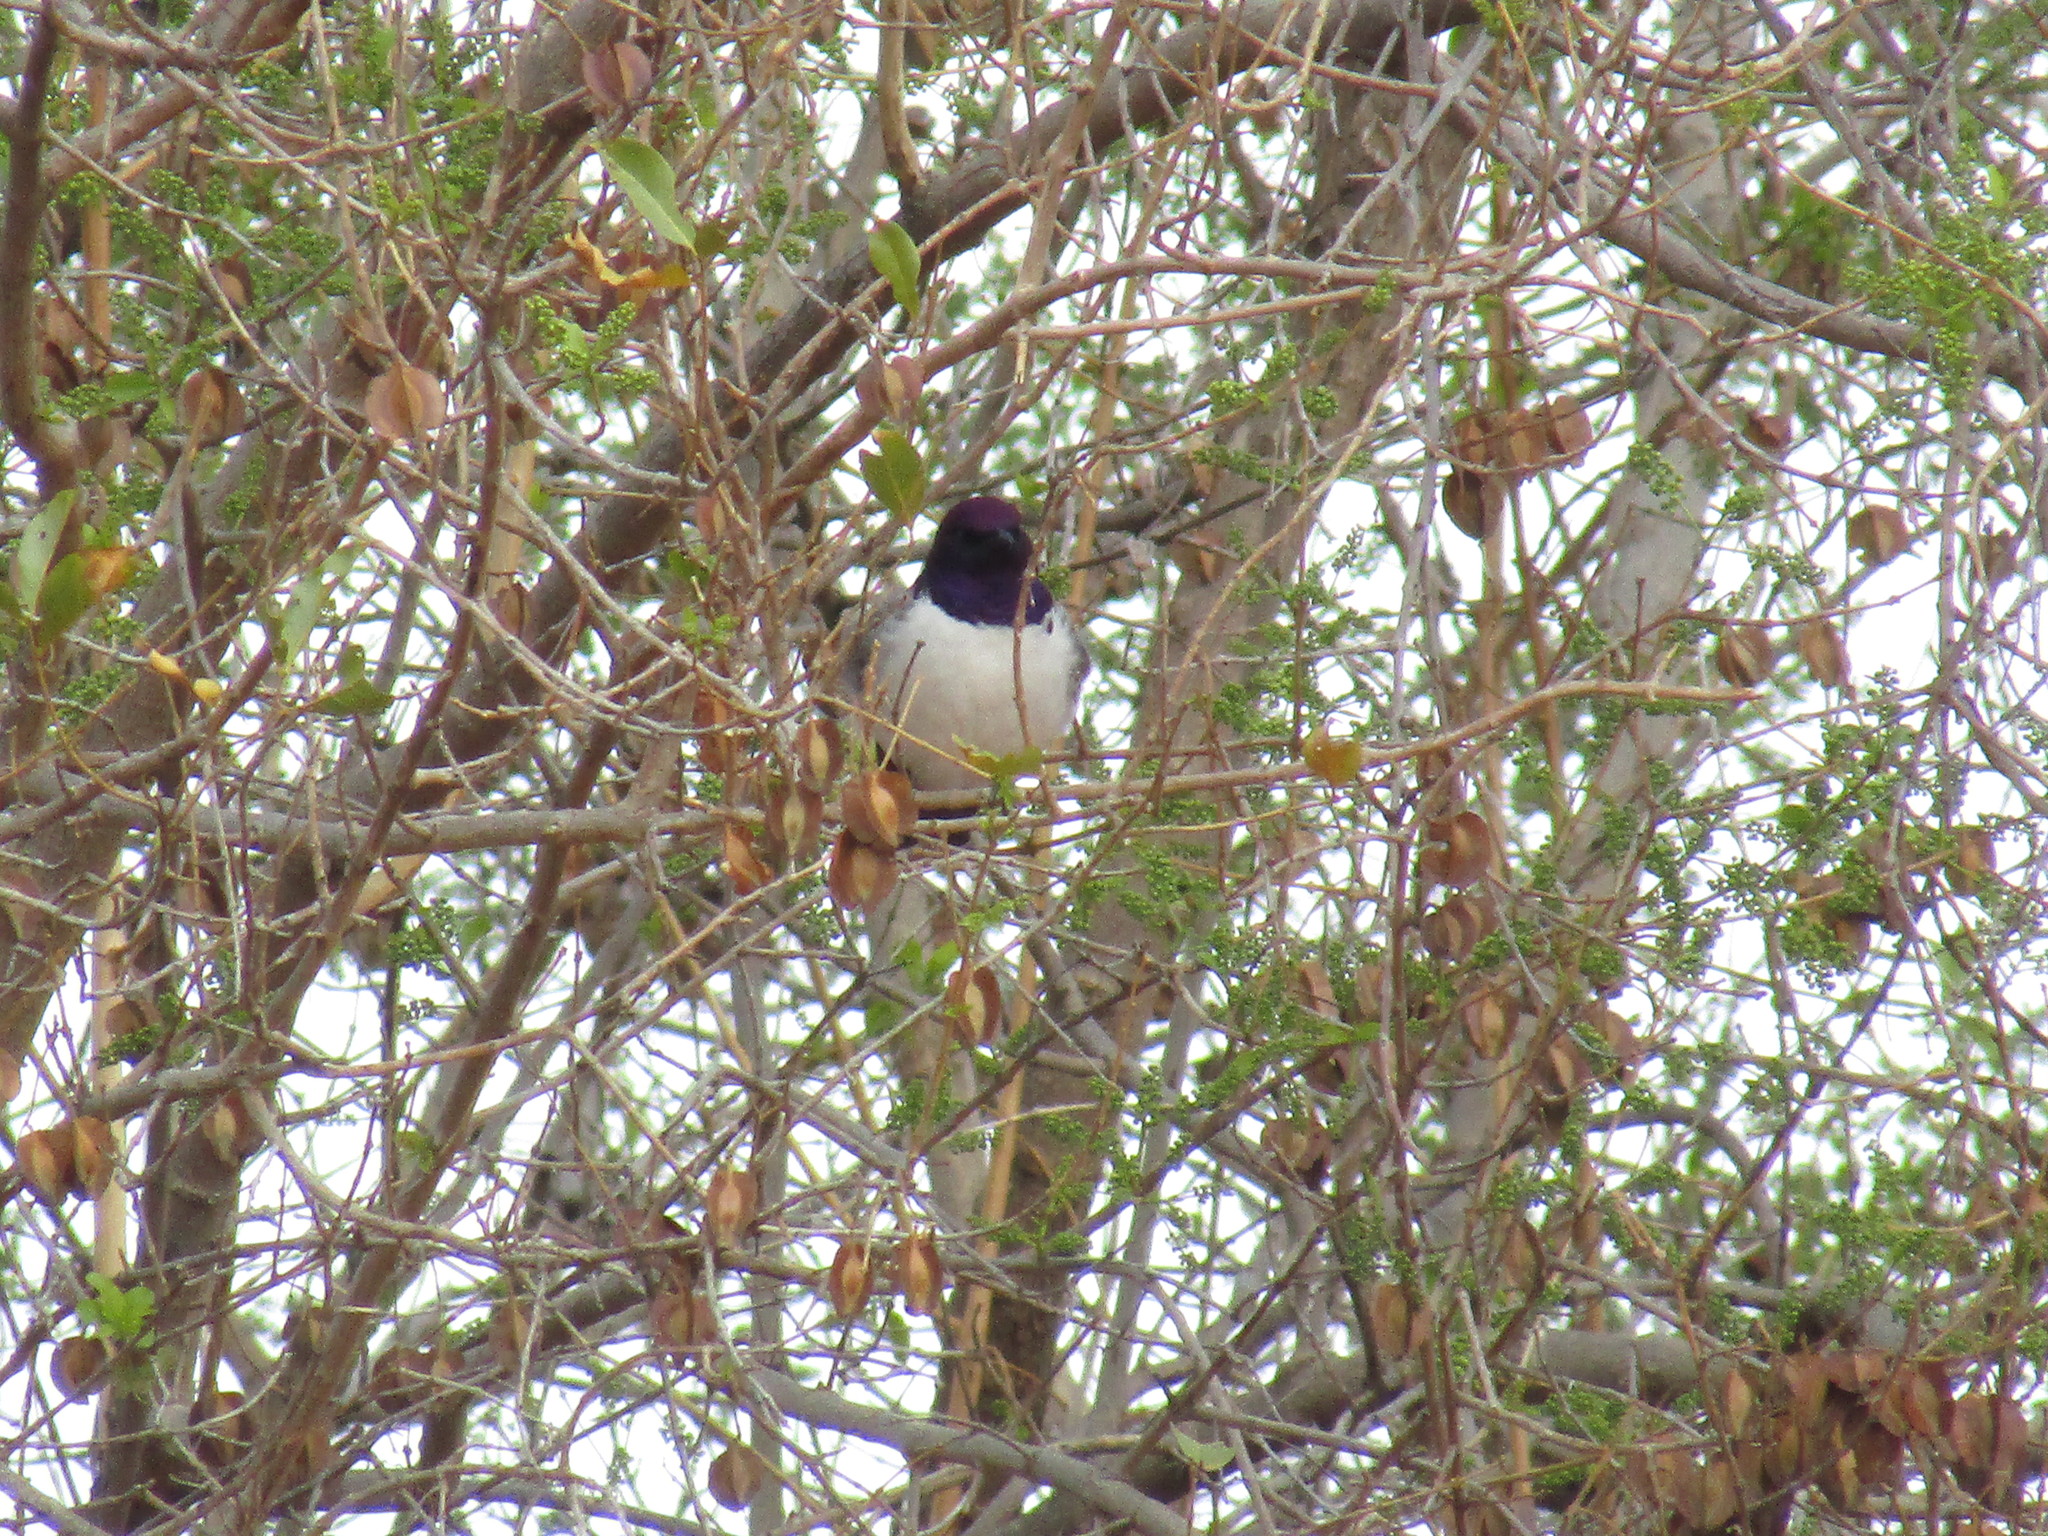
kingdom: Animalia
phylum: Chordata
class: Aves
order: Passeriformes
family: Sturnidae
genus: Cinnyricinclus
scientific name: Cinnyricinclus leucogaster
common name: Violet-backed starling
